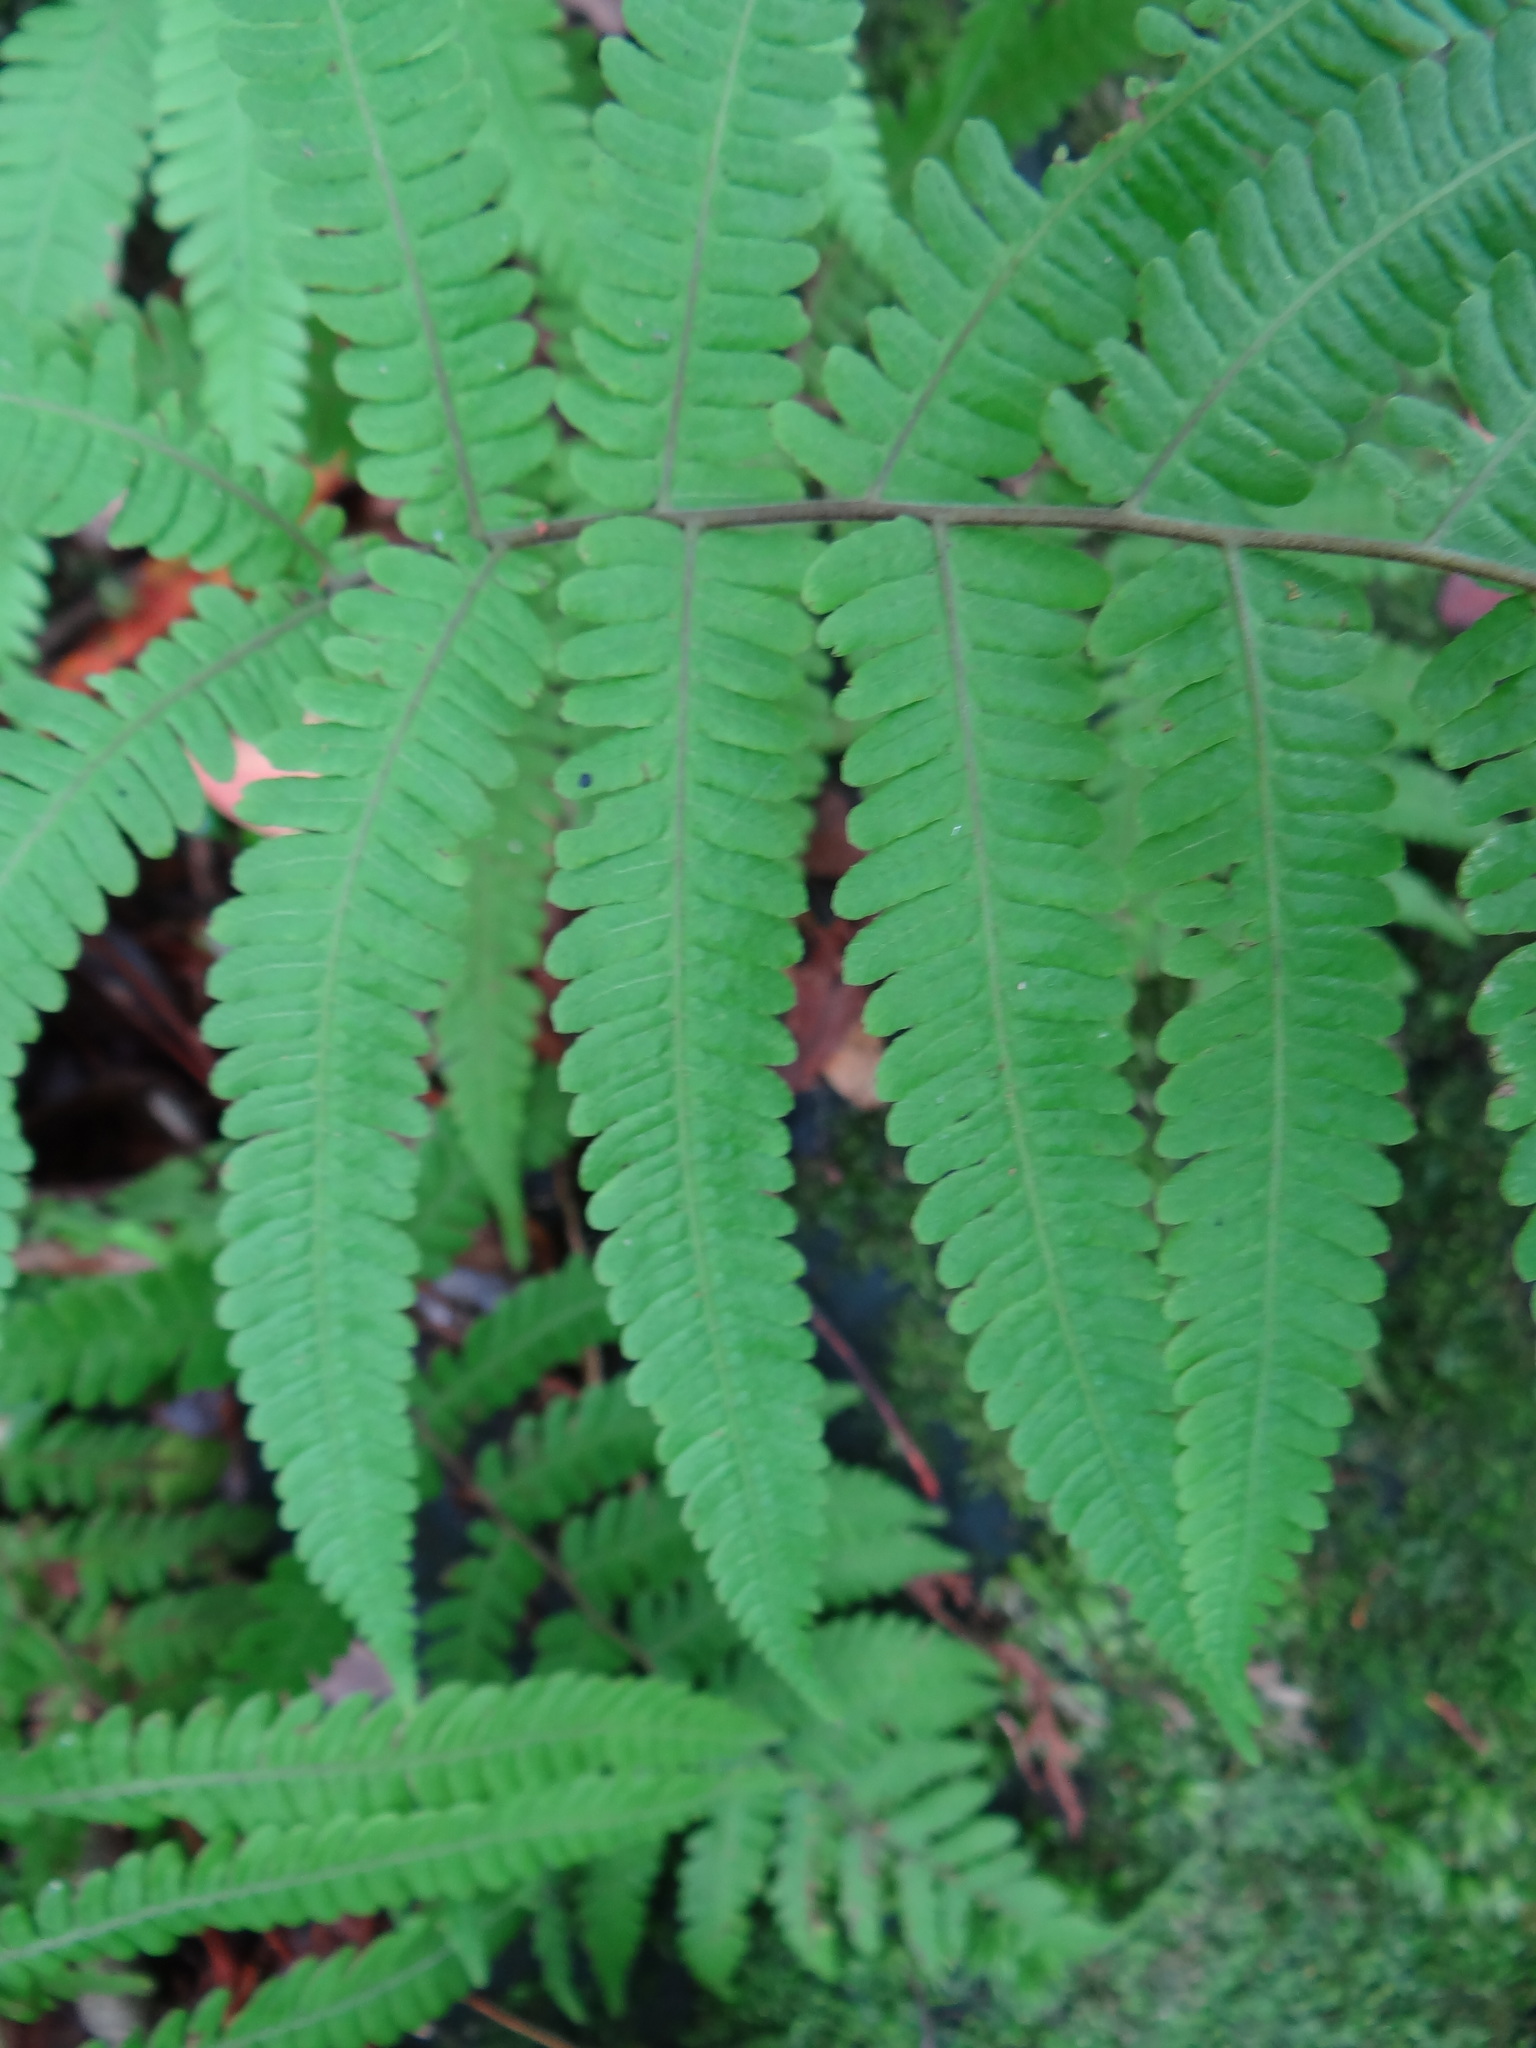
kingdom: Plantae
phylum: Tracheophyta
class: Polypodiopsida
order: Polypodiales
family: Thelypteridaceae
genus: Christella
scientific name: Christella parasitica
